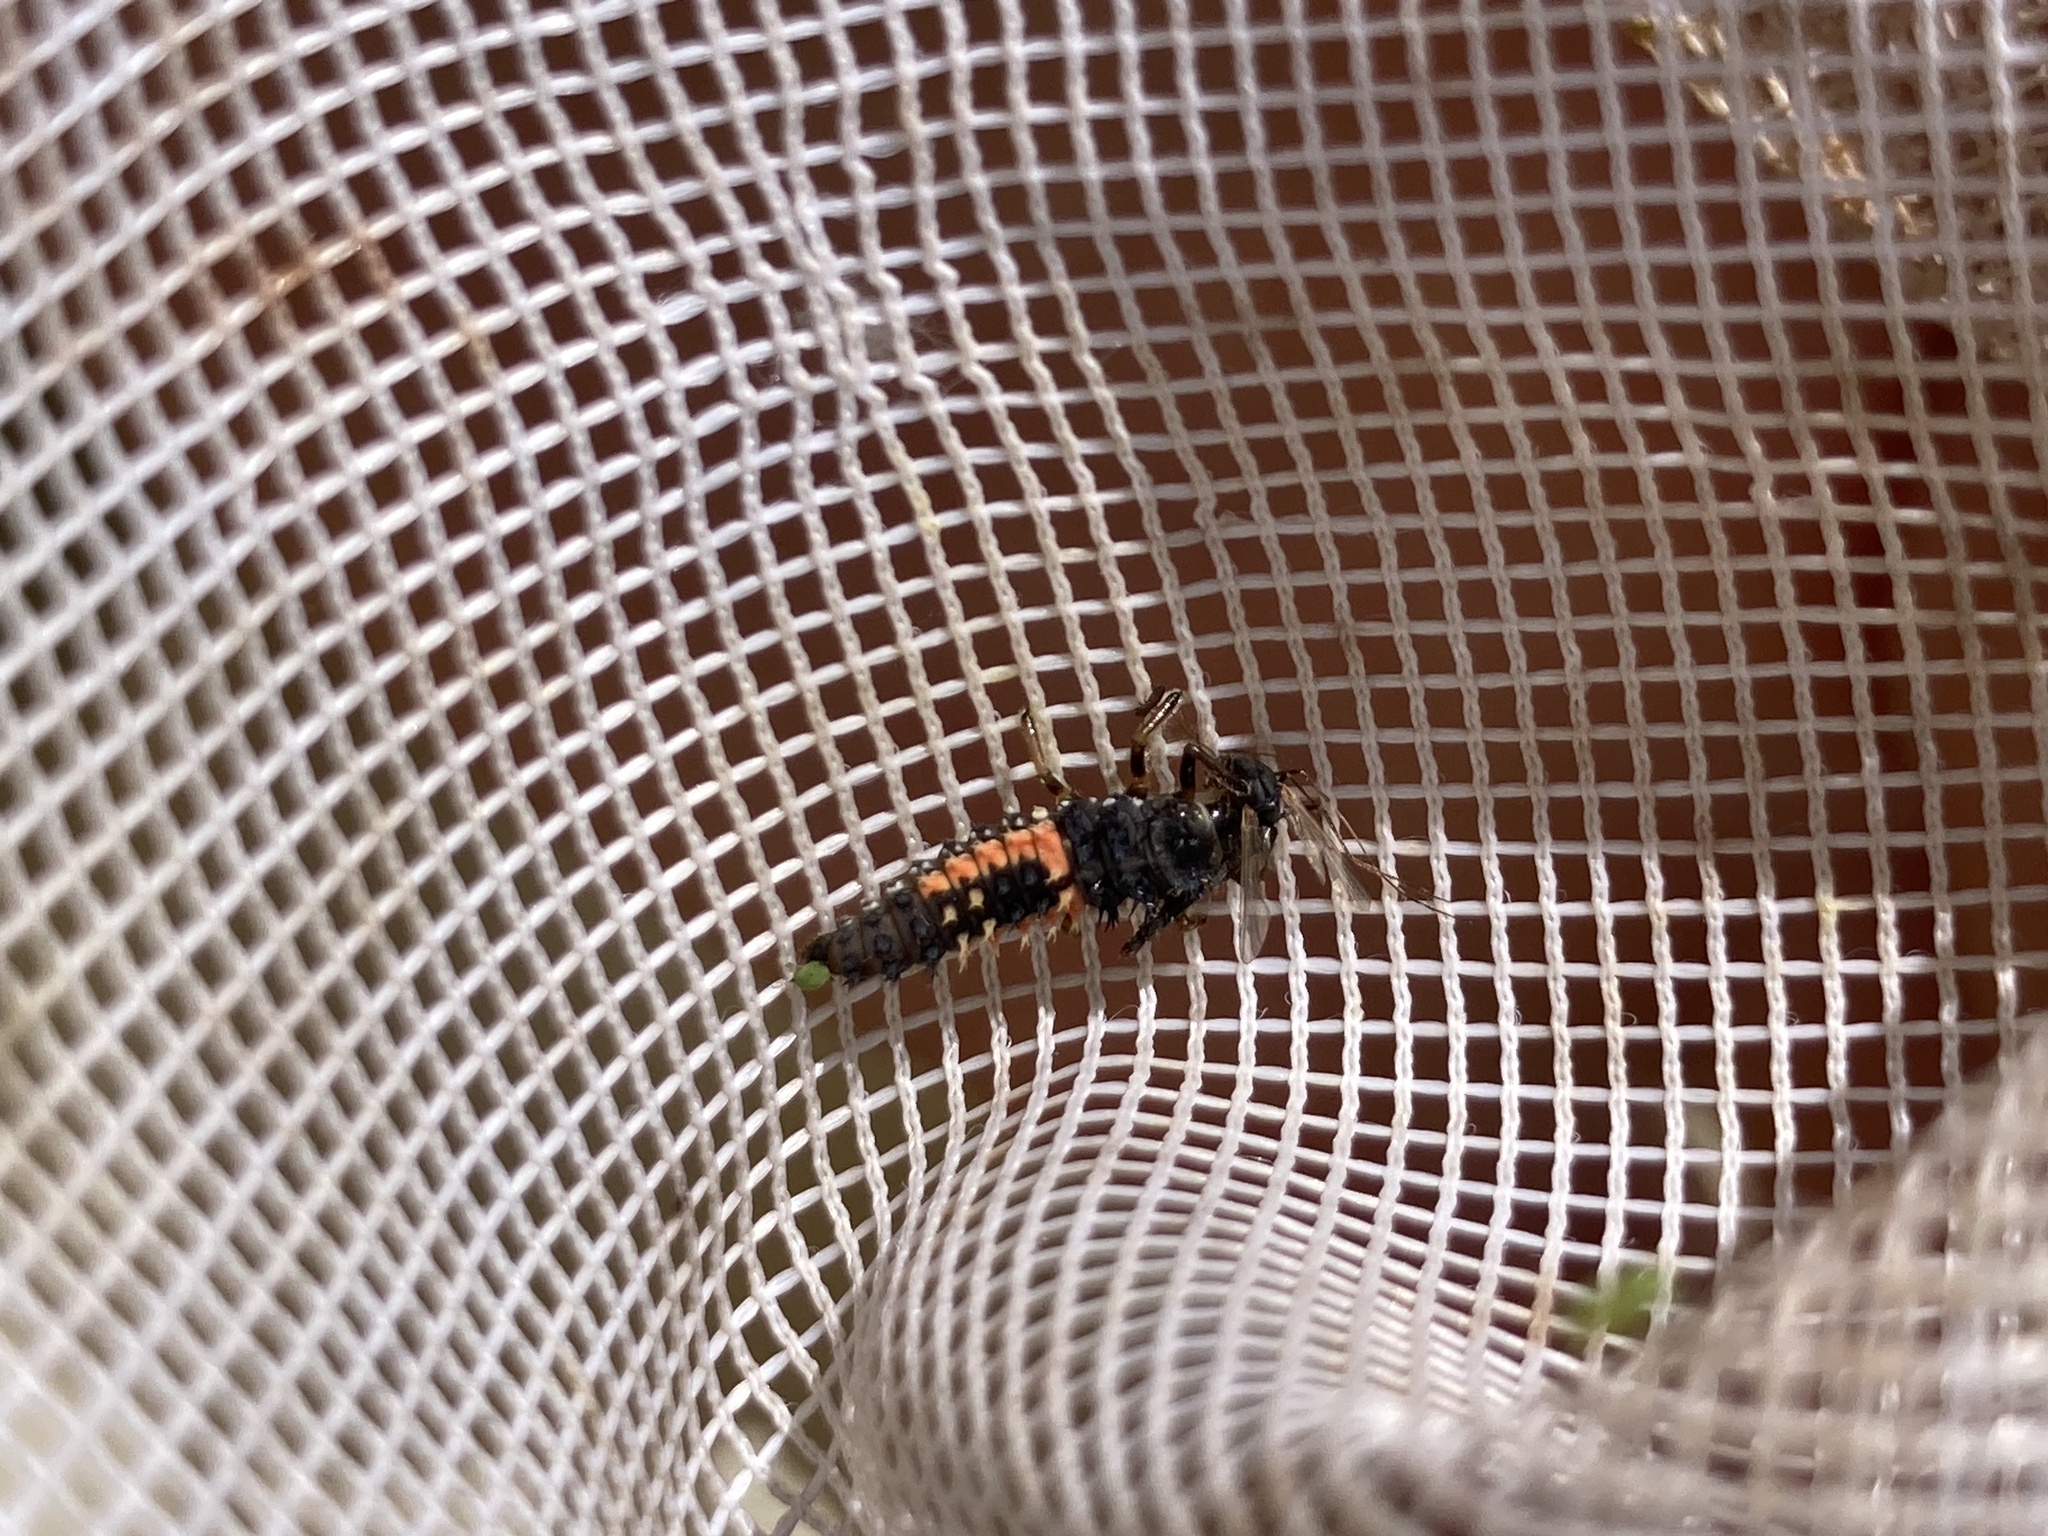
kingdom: Animalia
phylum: Arthropoda
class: Insecta
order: Coleoptera
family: Coccinellidae
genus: Harmonia
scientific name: Harmonia axyridis
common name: Harlequin ladybird
